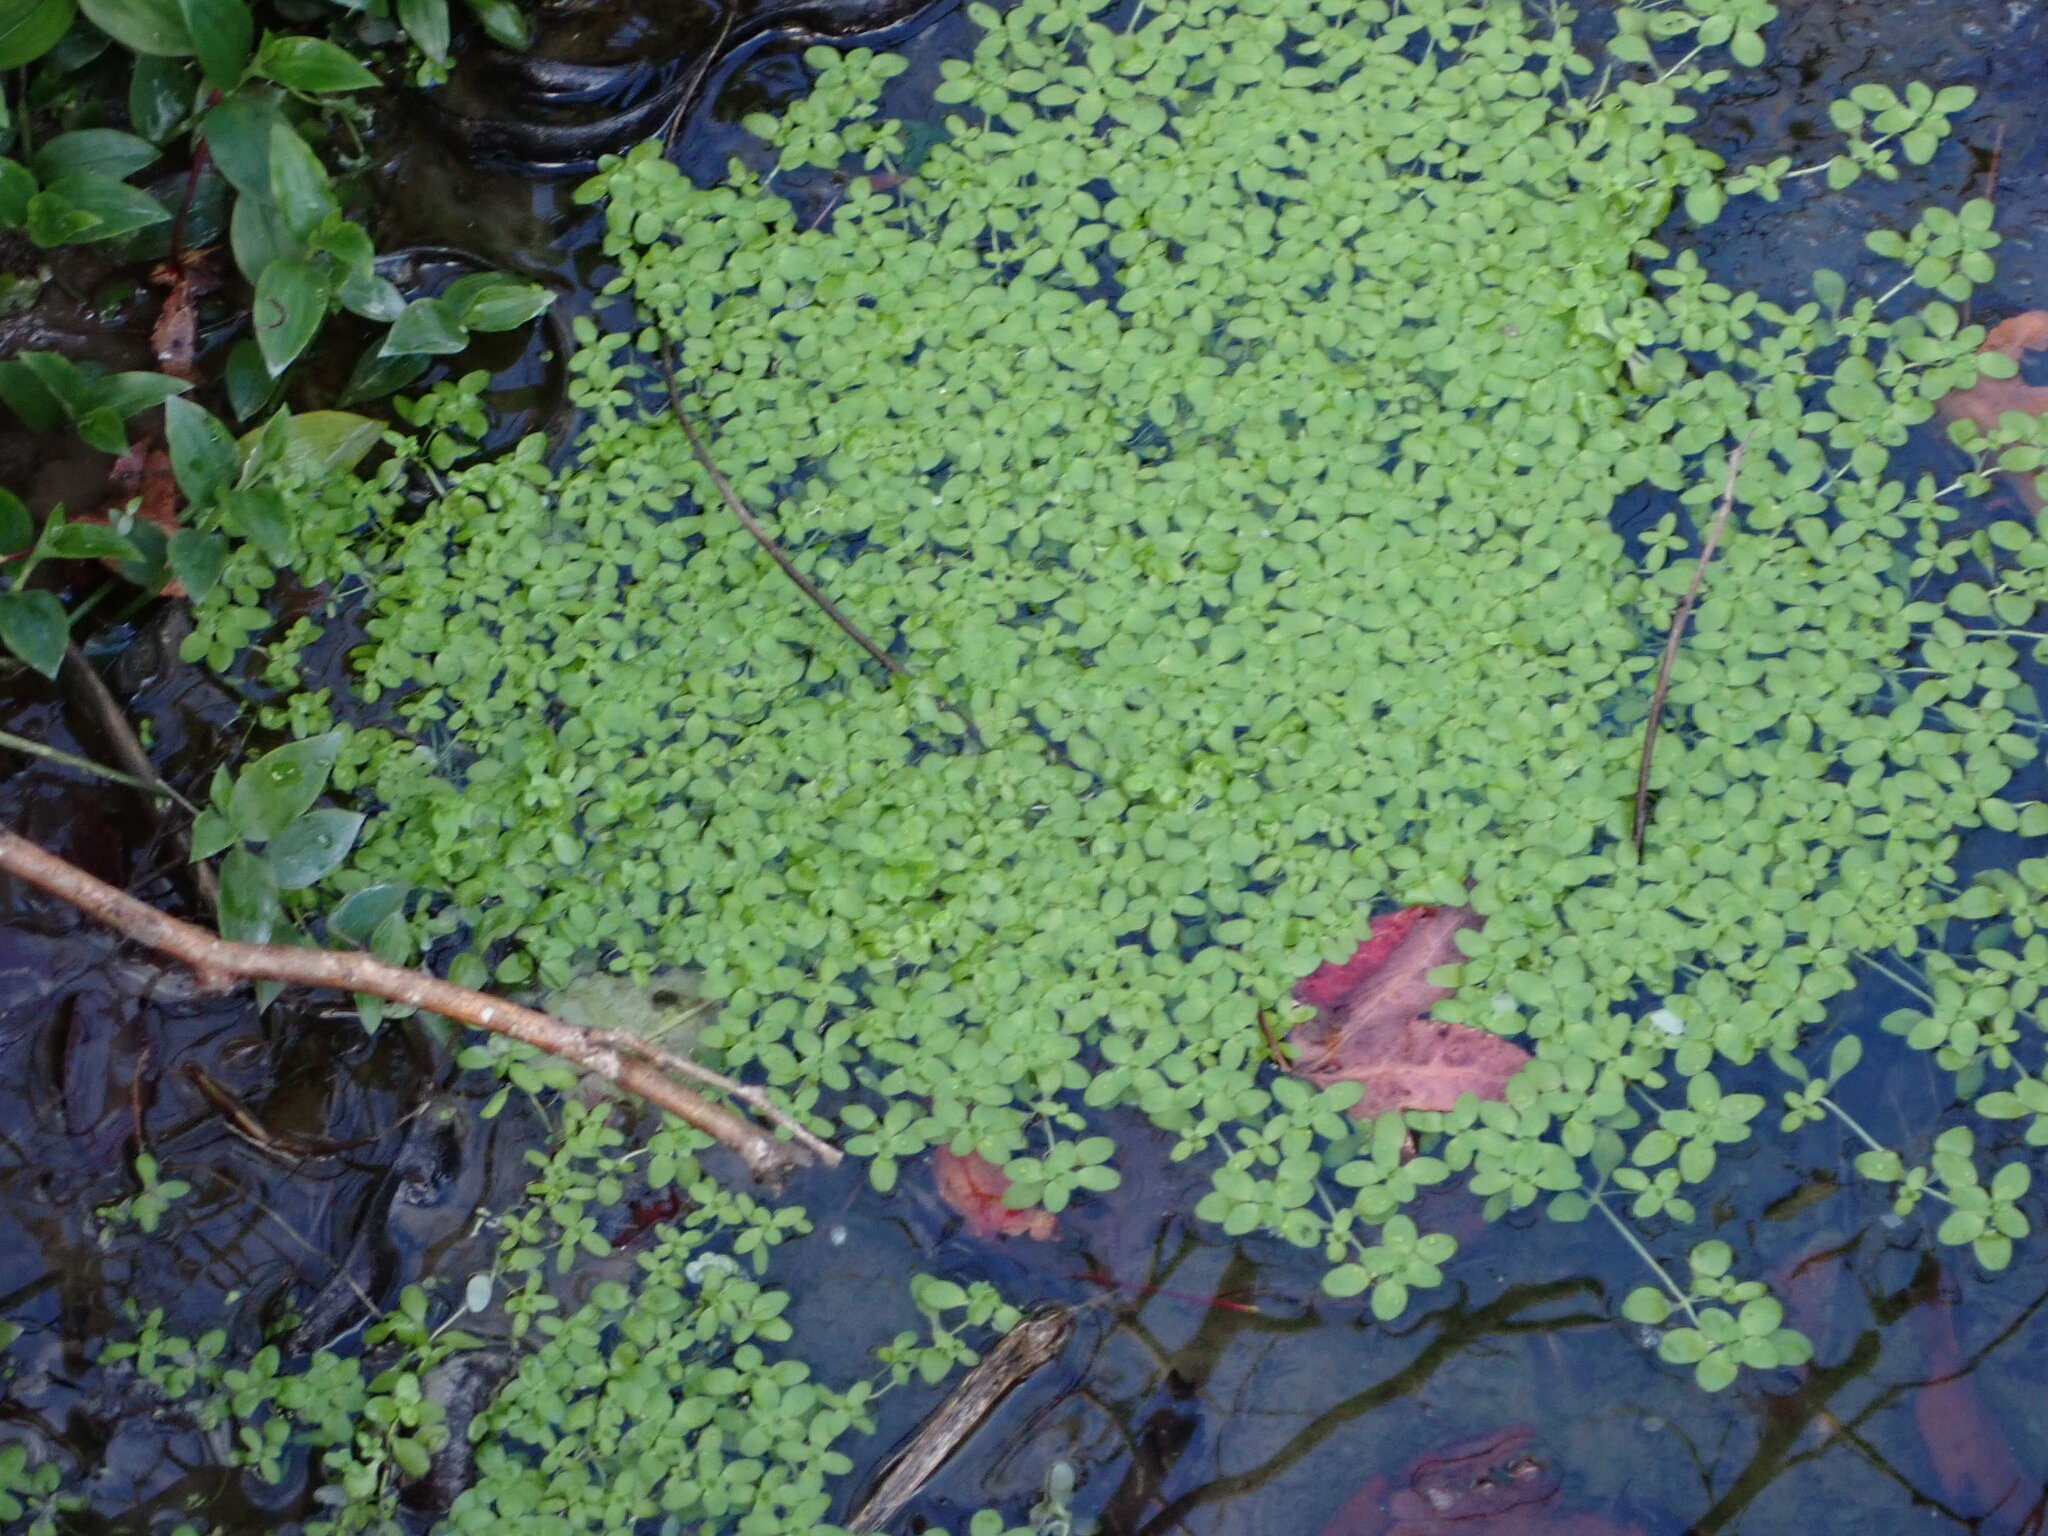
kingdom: Plantae
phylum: Tracheophyta
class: Magnoliopsida
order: Lamiales
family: Plantaginaceae
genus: Callitriche
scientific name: Callitriche stagnalis
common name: Common water-starwort
